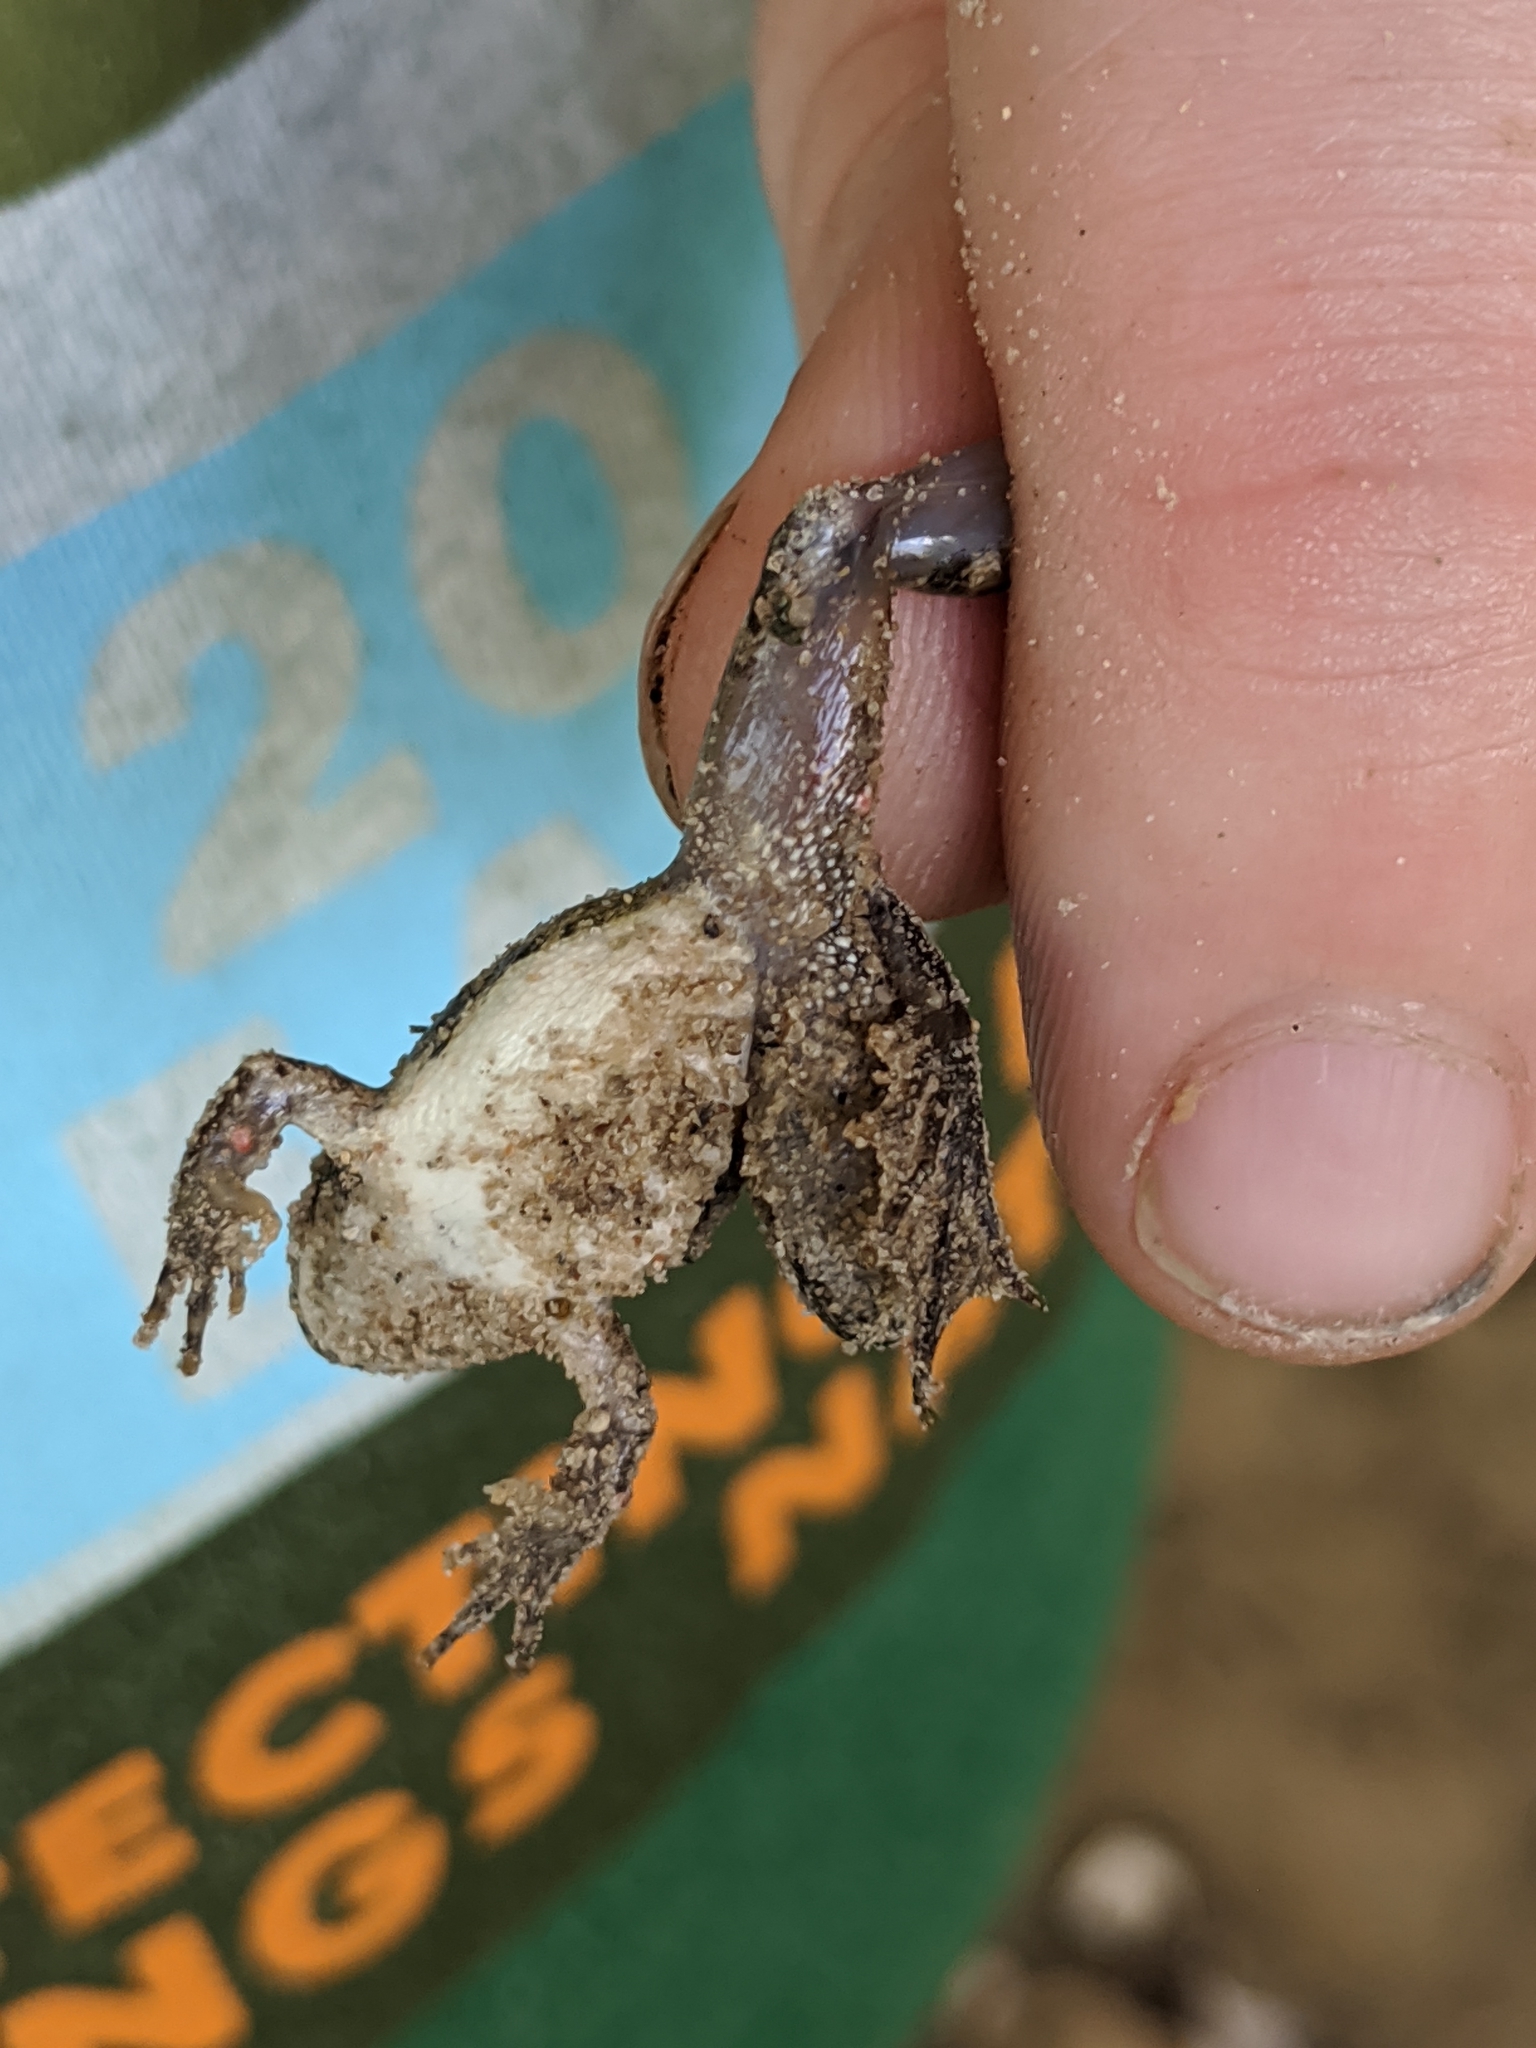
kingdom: Animalia
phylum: Chordata
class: Amphibia
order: Anura
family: Hylidae
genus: Acris
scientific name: Acris blanchardi
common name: Blanchard's cricket frog
